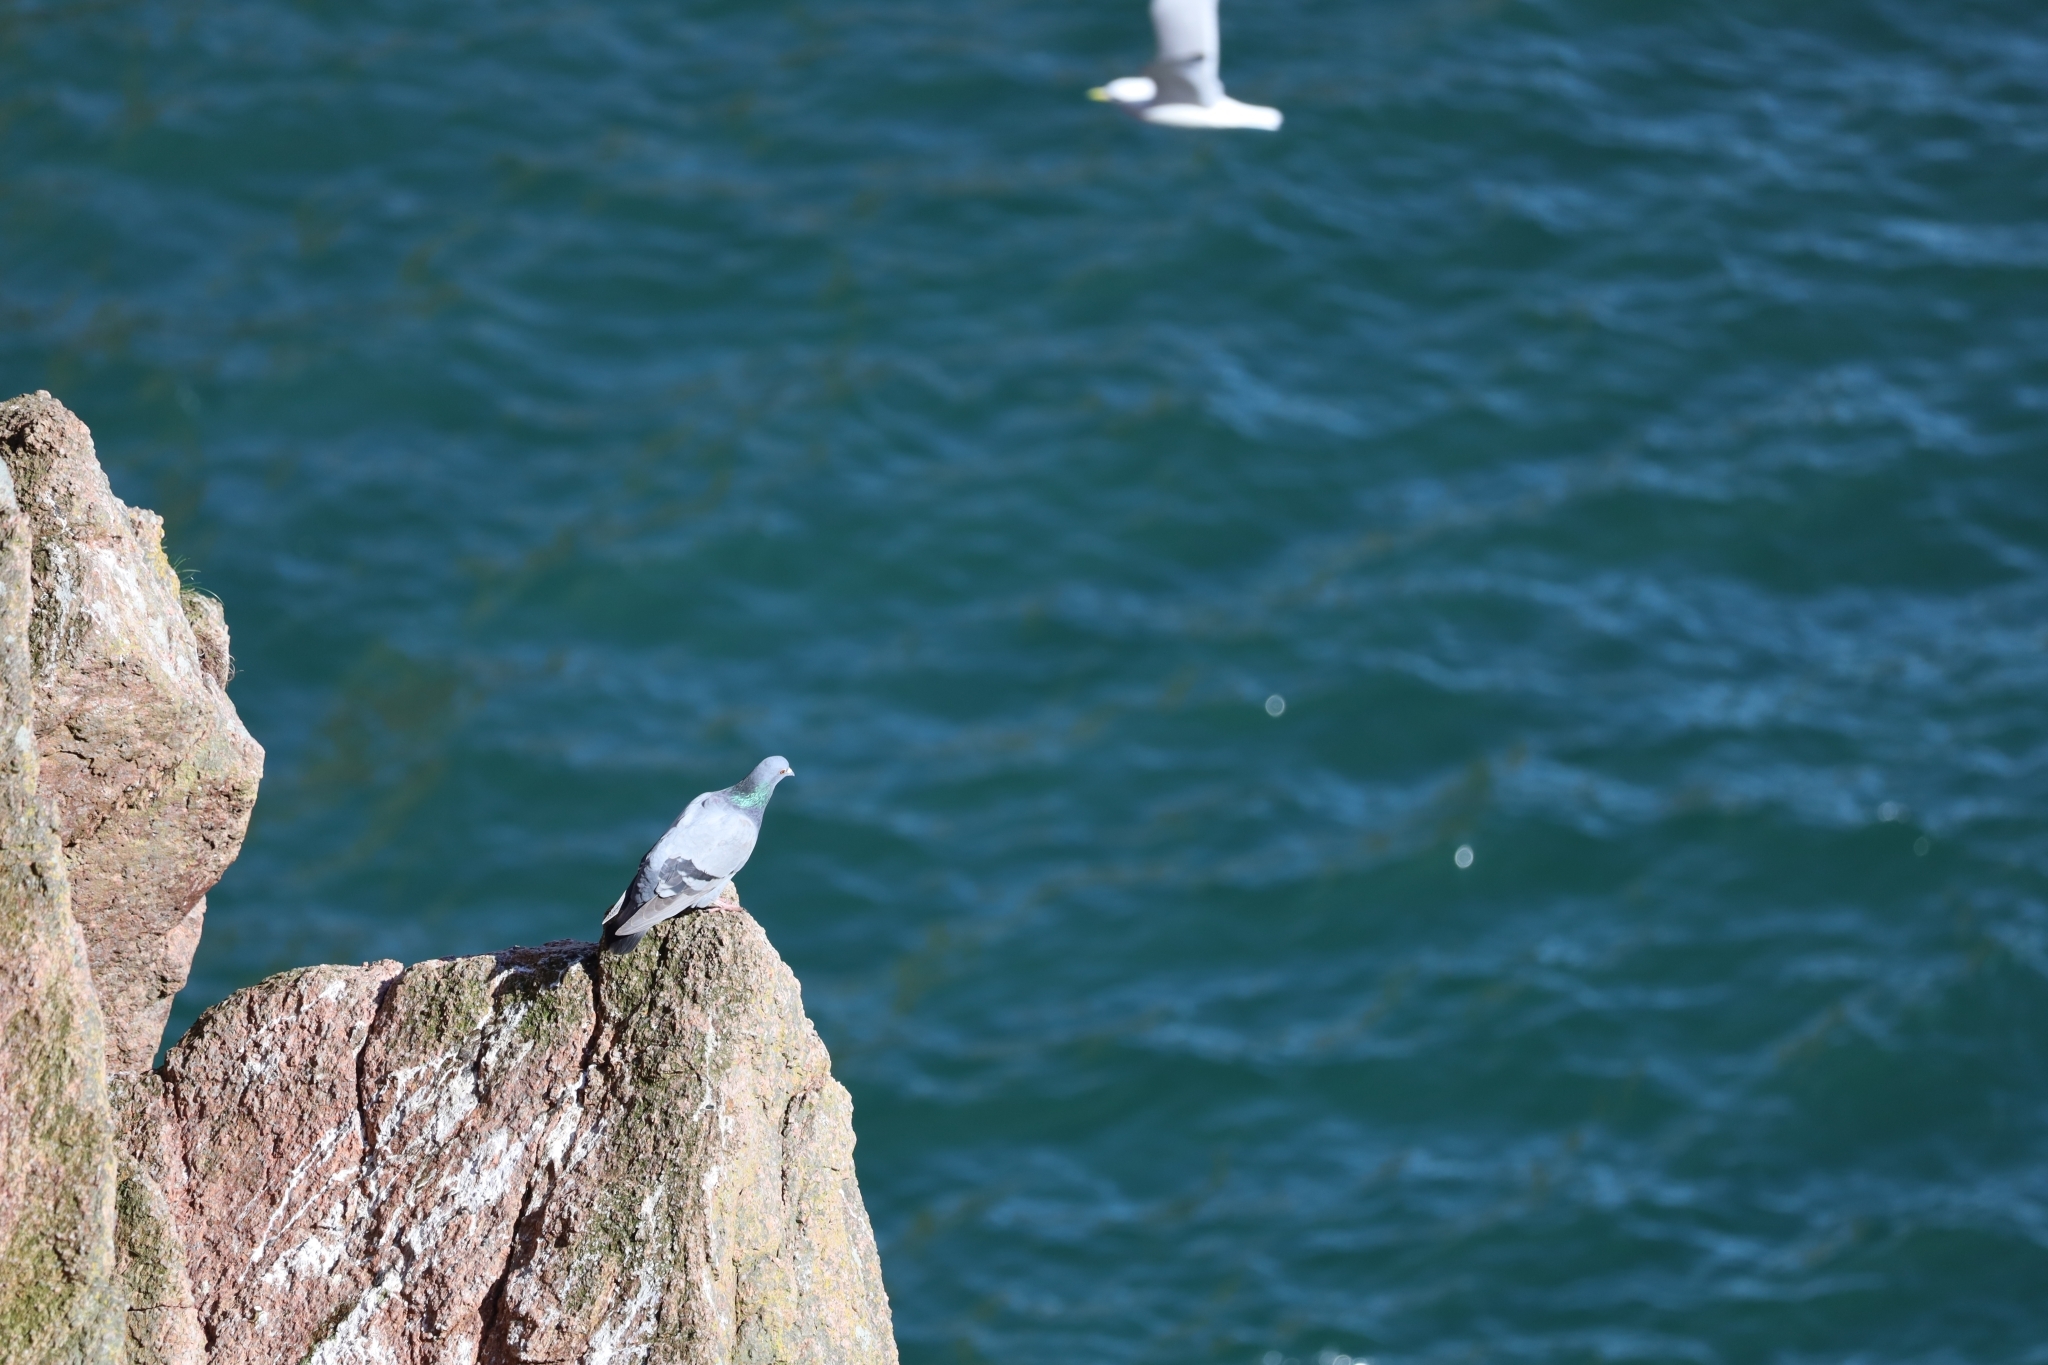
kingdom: Animalia
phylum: Chordata
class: Aves
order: Columbiformes
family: Columbidae
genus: Columba
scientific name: Columba livia
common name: Rock pigeon
